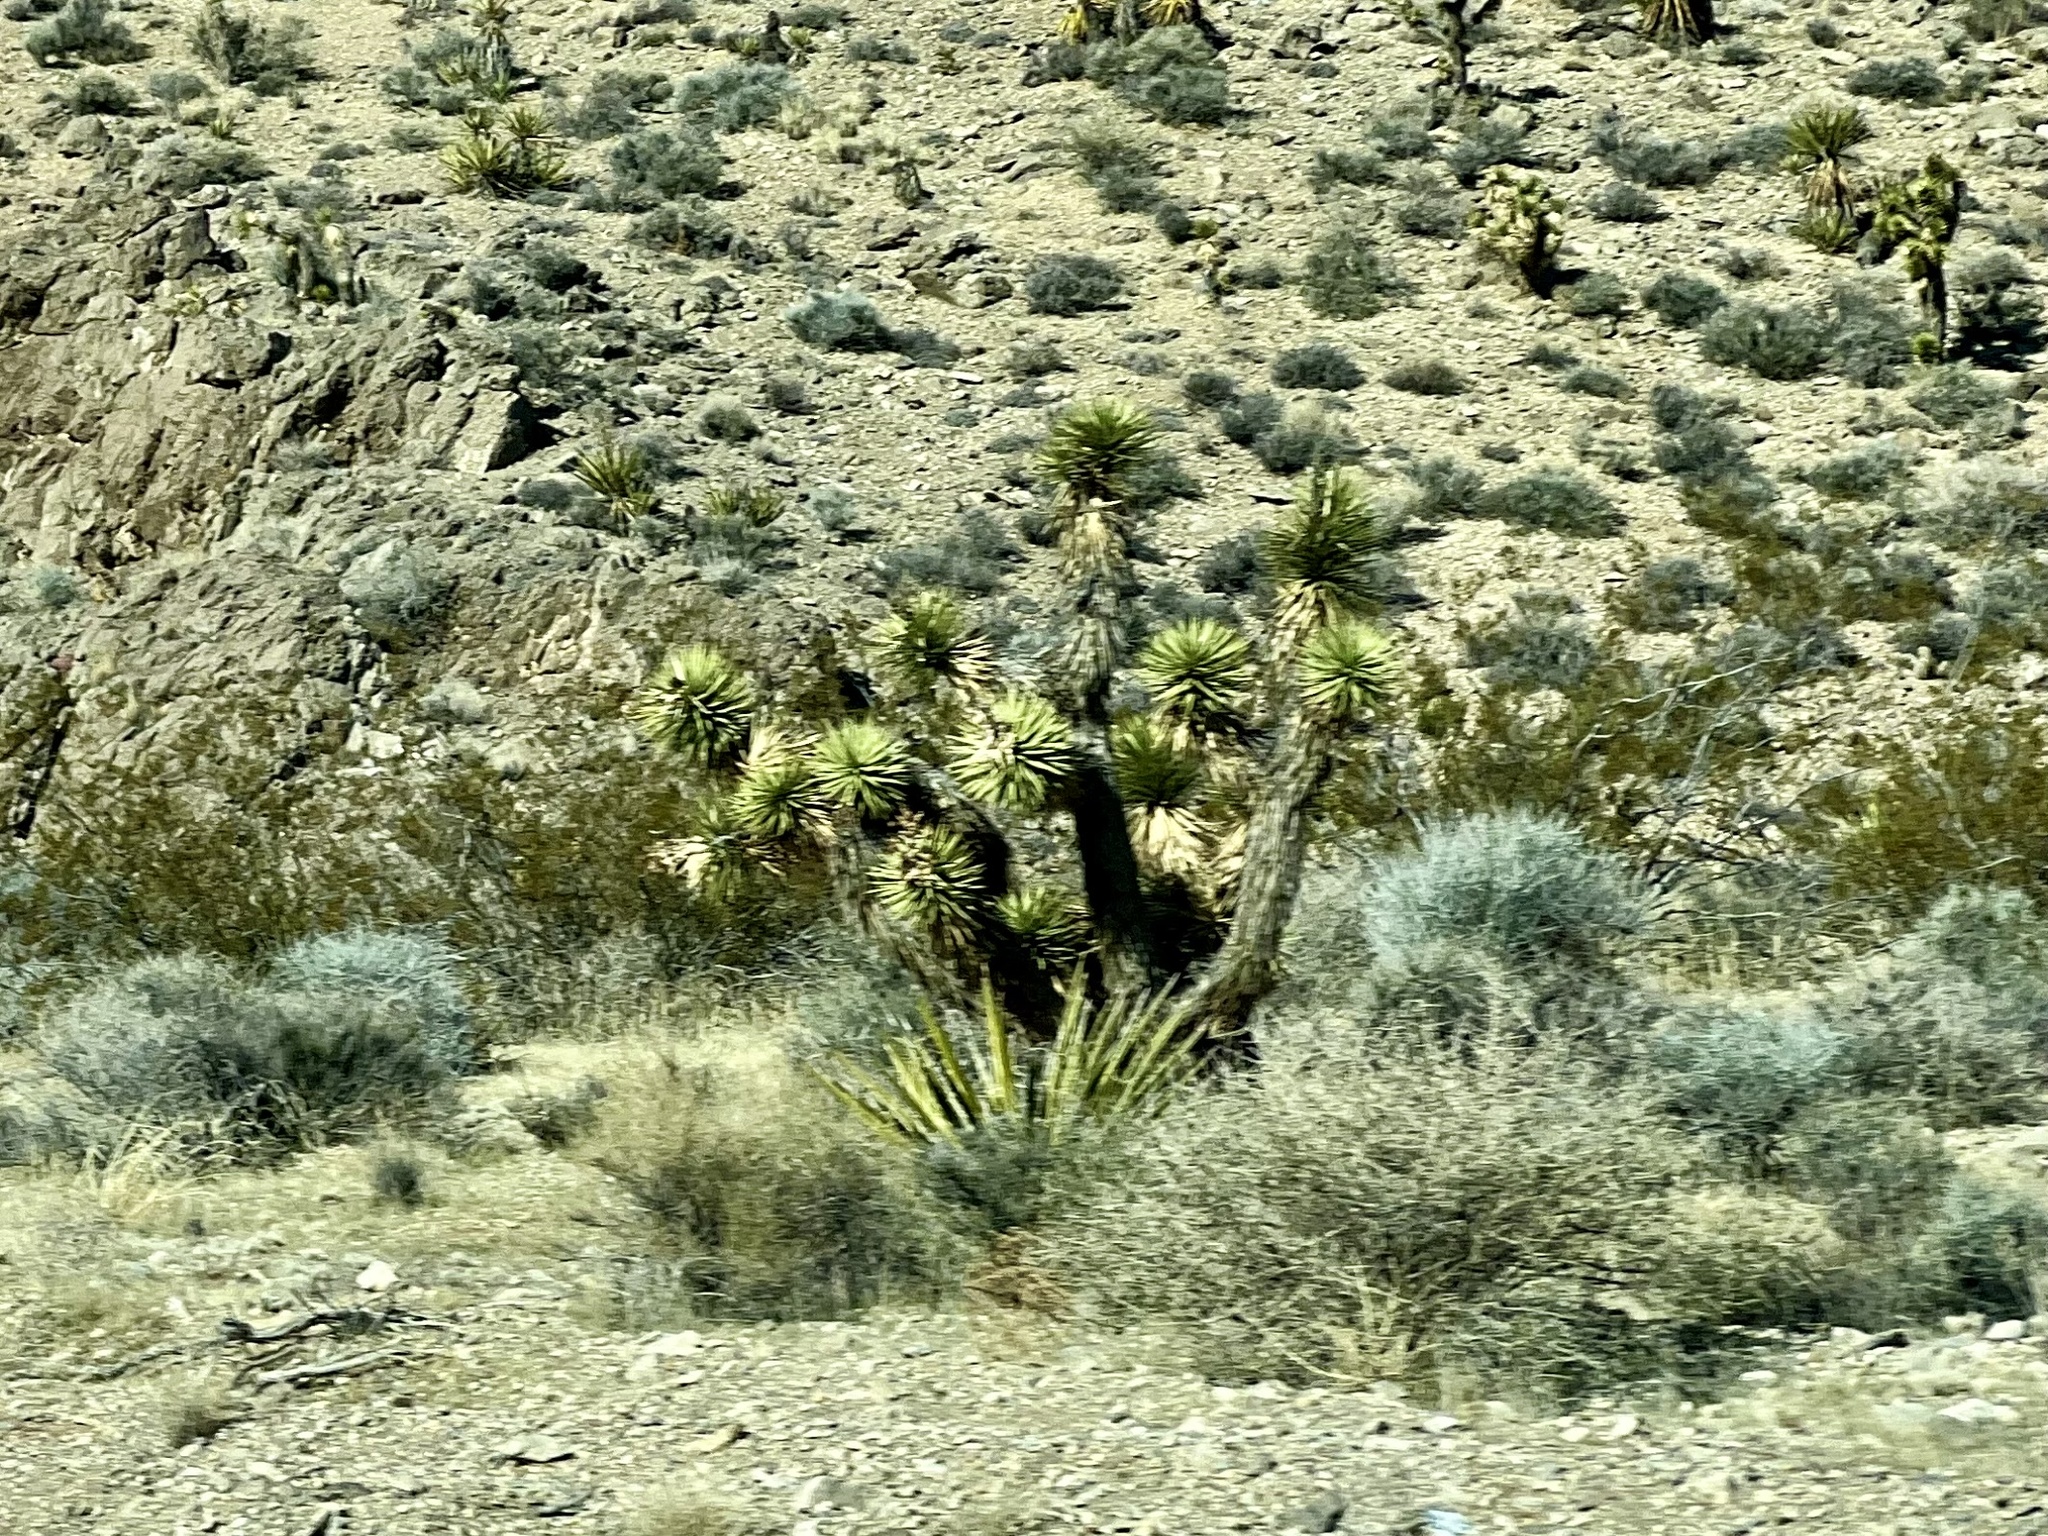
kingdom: Plantae
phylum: Tracheophyta
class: Liliopsida
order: Asparagales
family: Asparagaceae
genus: Yucca
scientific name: Yucca brevifolia
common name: Joshua tree
